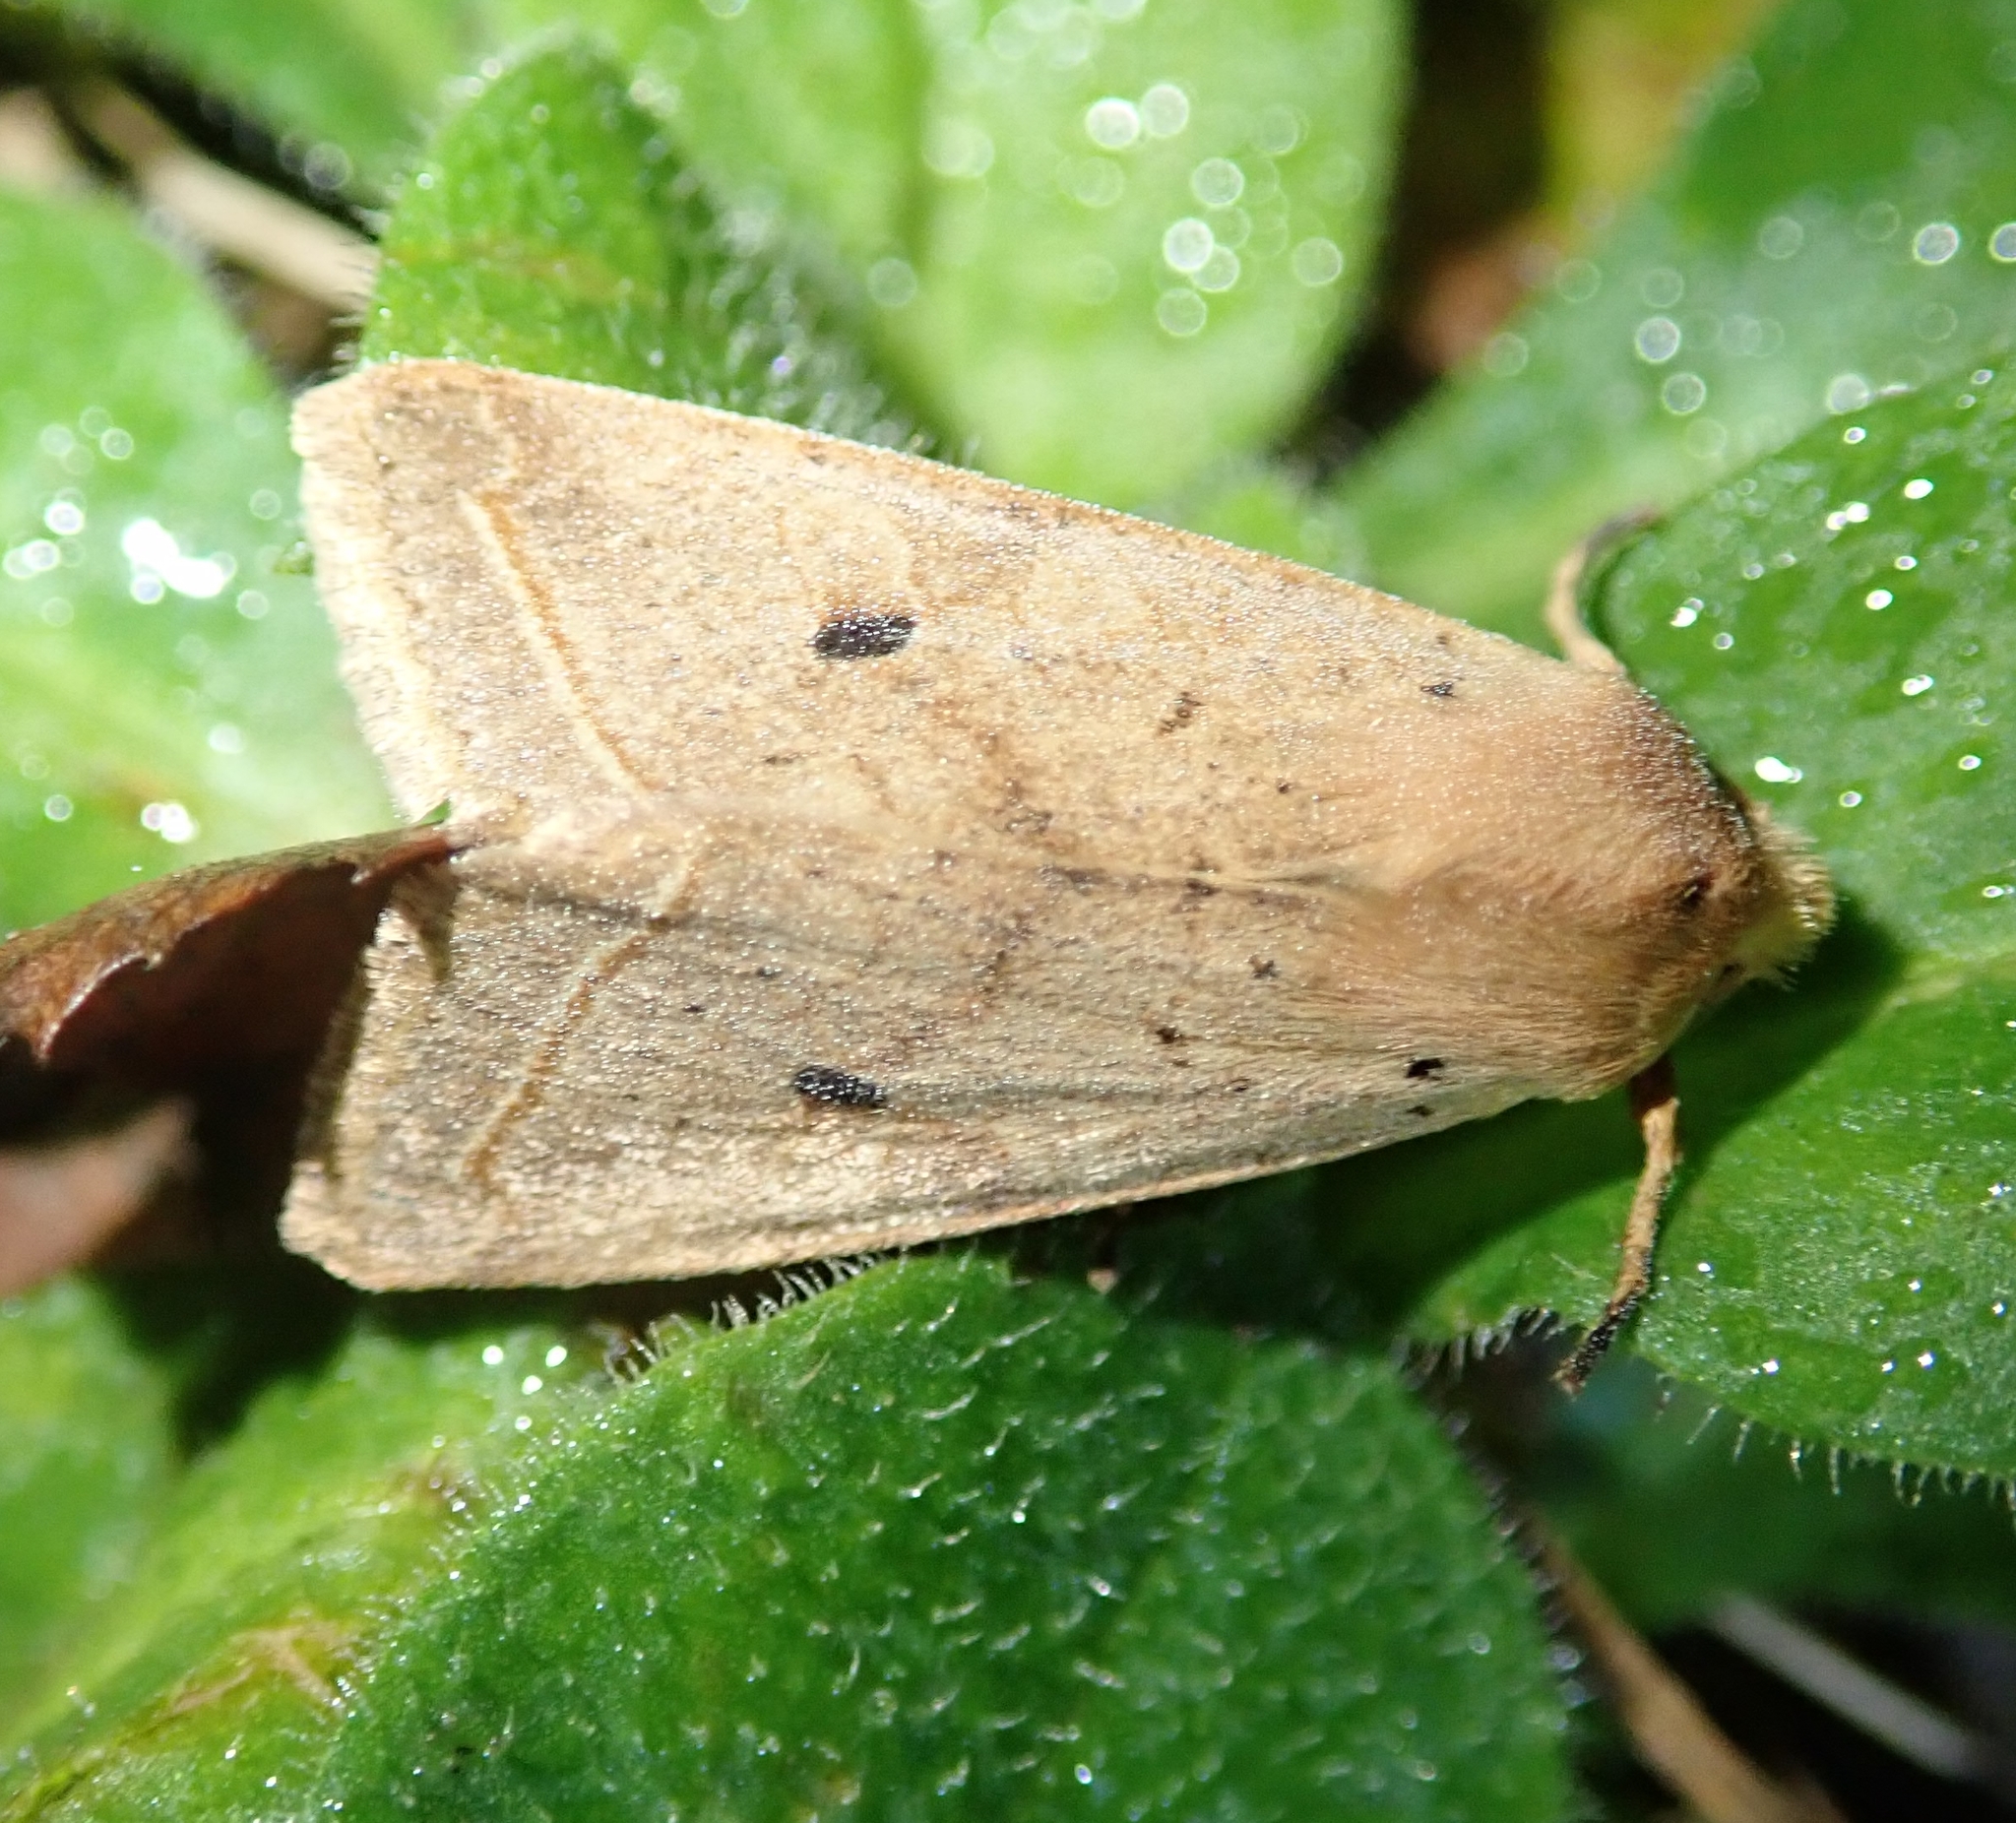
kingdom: Animalia
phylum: Arthropoda
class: Insecta
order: Lepidoptera
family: Noctuidae
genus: Agrochola
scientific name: Agrochola macilenta
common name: Yellow-line quaker
